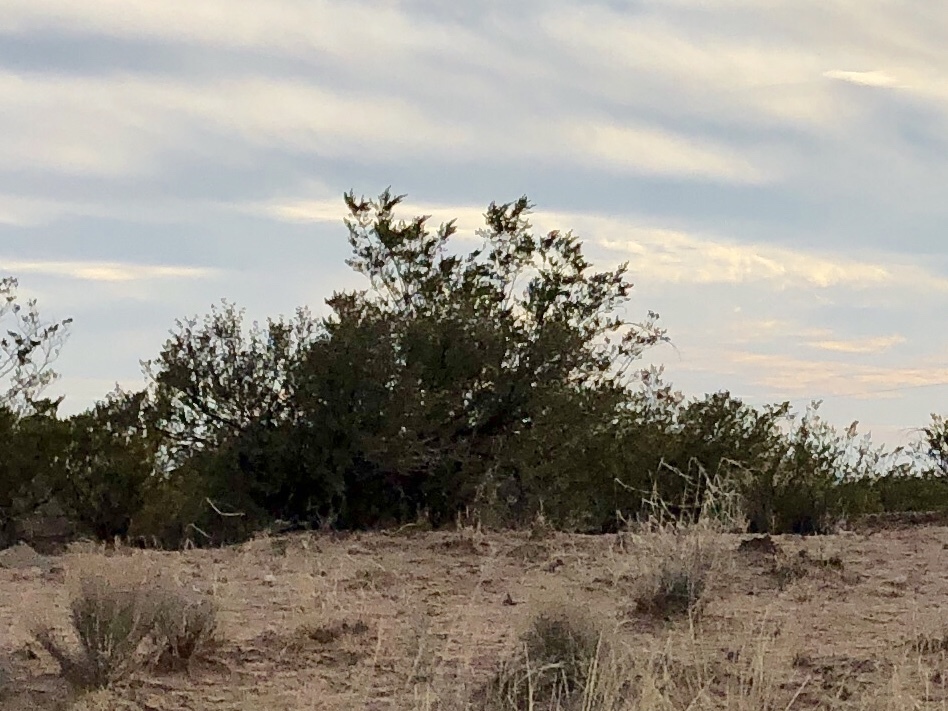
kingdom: Plantae
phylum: Tracheophyta
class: Magnoliopsida
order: Zygophyllales
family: Zygophyllaceae
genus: Larrea
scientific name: Larrea tridentata
